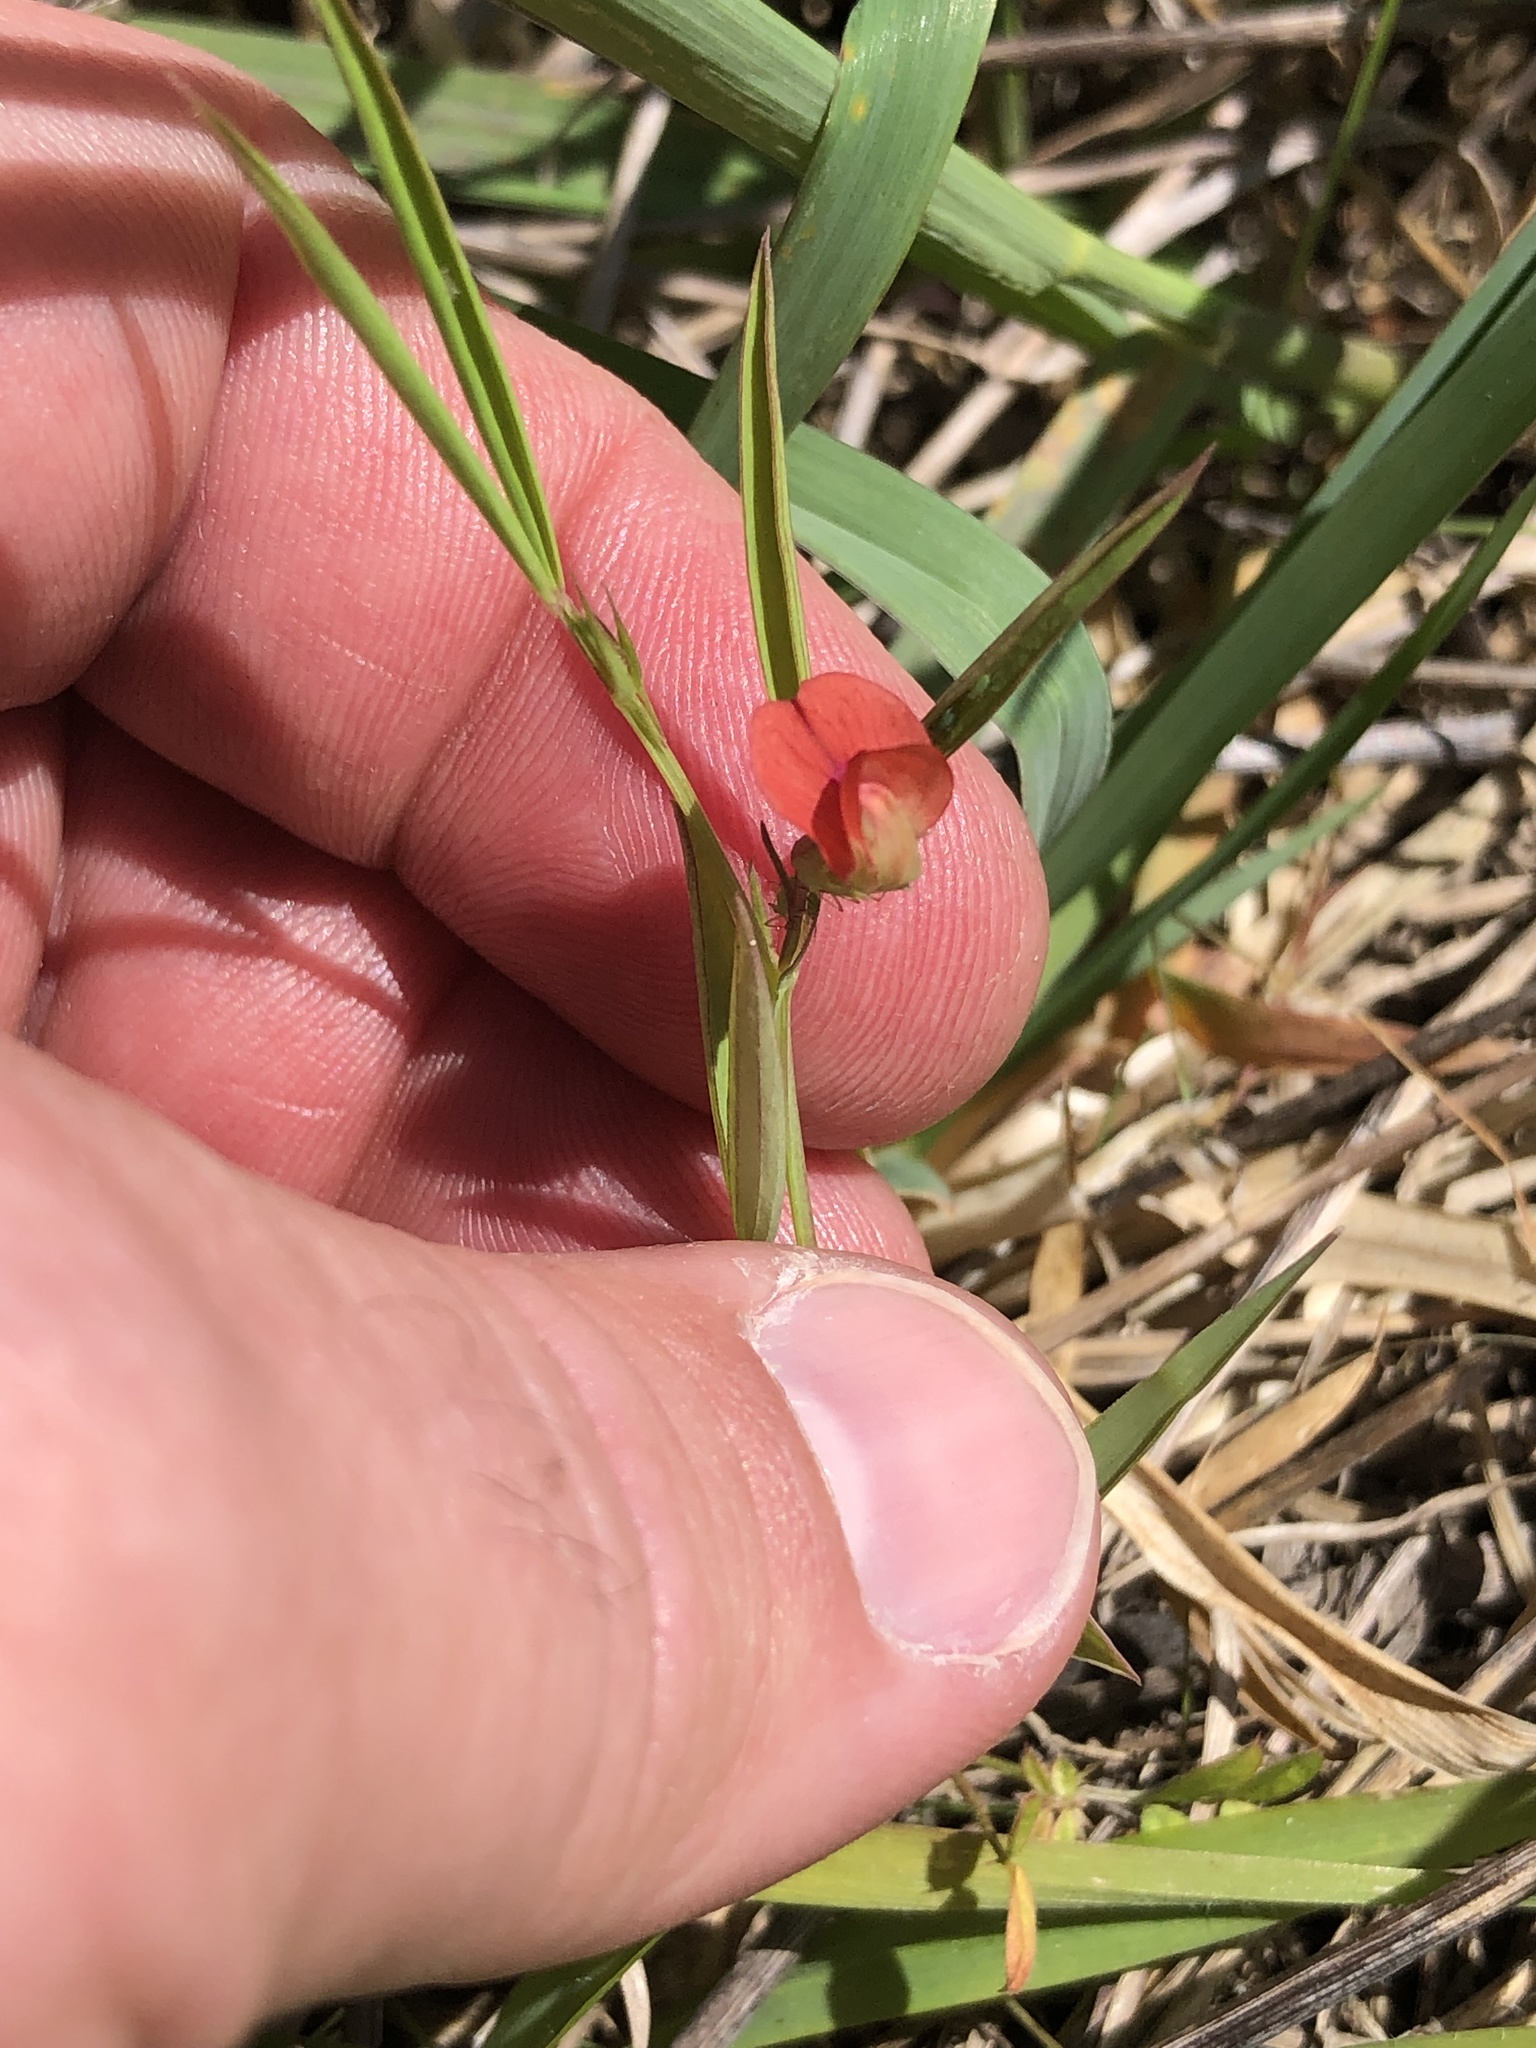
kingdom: Plantae
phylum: Tracheophyta
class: Magnoliopsida
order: Fabales
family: Fabaceae
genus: Lathyrus
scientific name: Lathyrus sphaericus
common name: Grass pea
